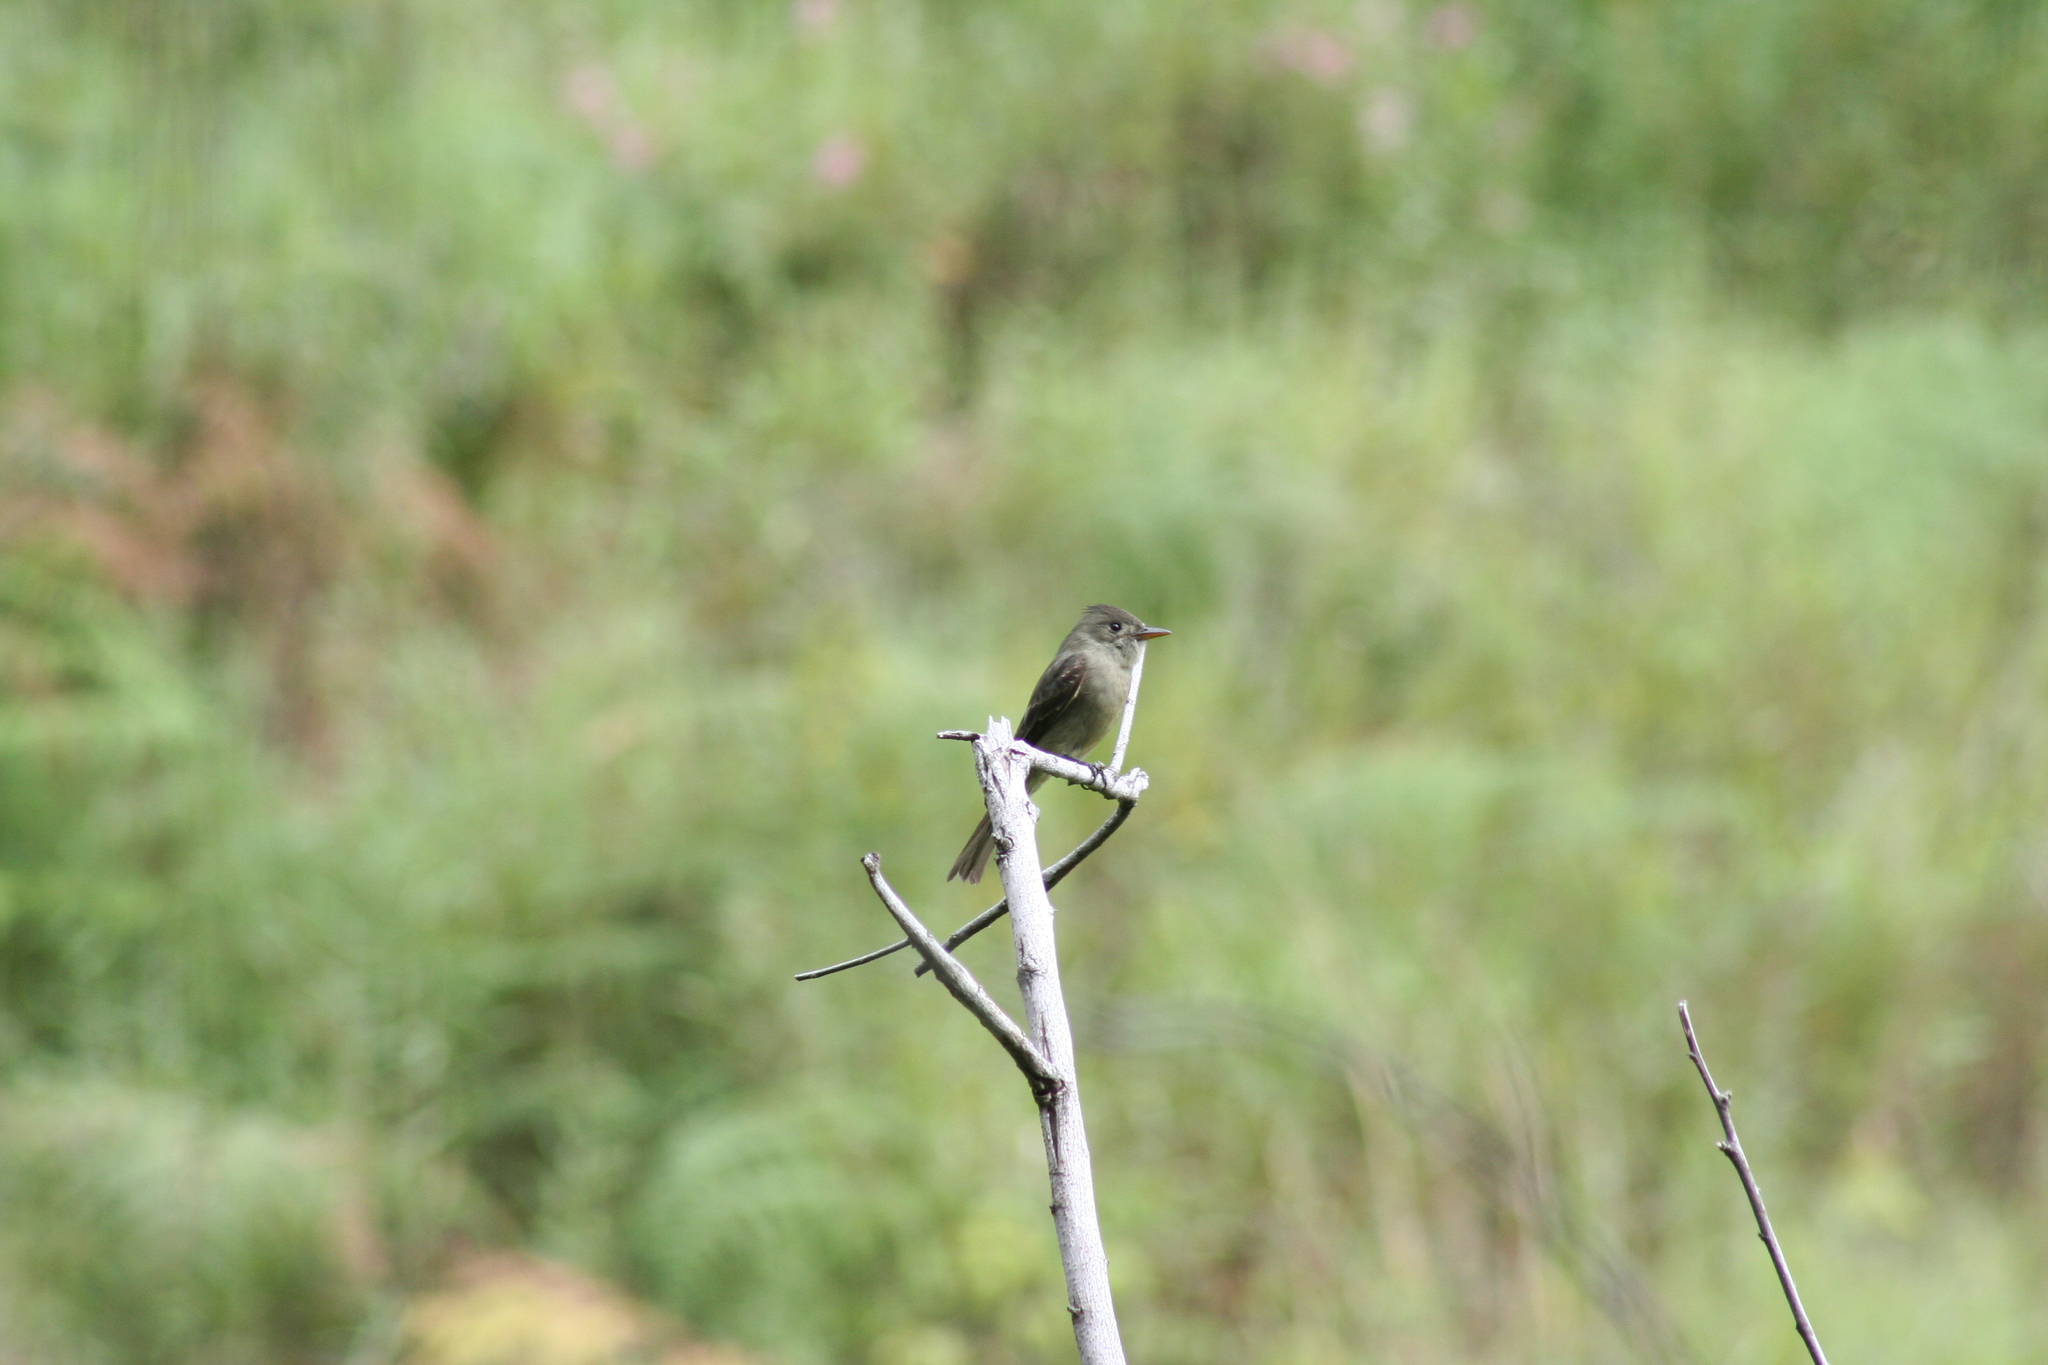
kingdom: Animalia
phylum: Chordata
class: Aves
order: Passeriformes
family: Tyrannidae
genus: Contopus
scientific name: Contopus pertinax
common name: Greater pewee
